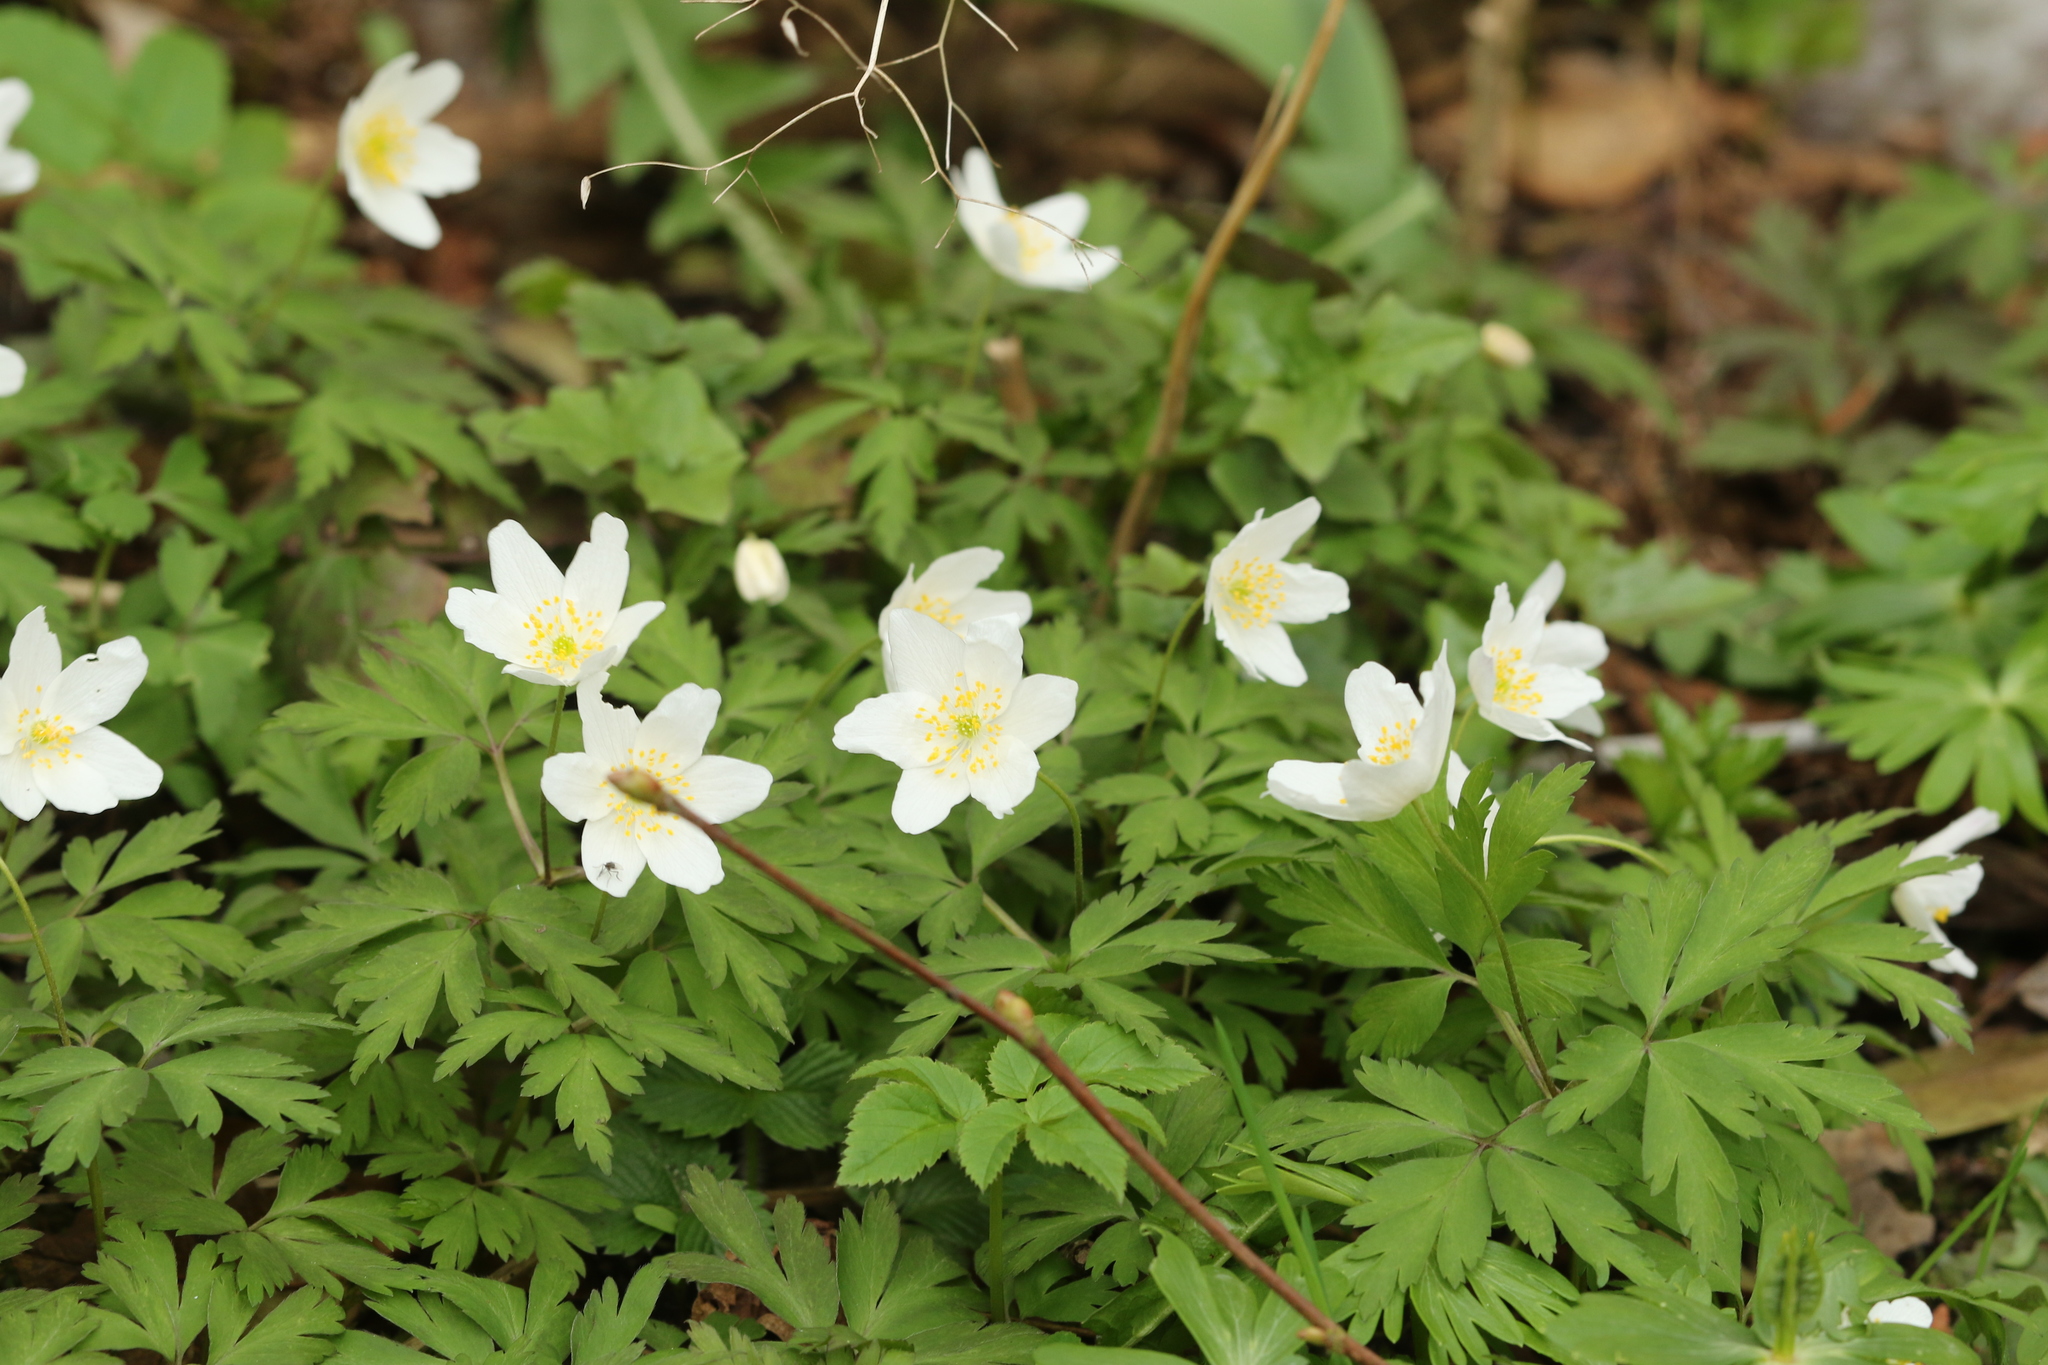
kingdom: Plantae
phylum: Tracheophyta
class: Magnoliopsida
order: Ranunculales
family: Ranunculaceae
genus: Anemone
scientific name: Anemone nemorosa
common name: Wood anemone
